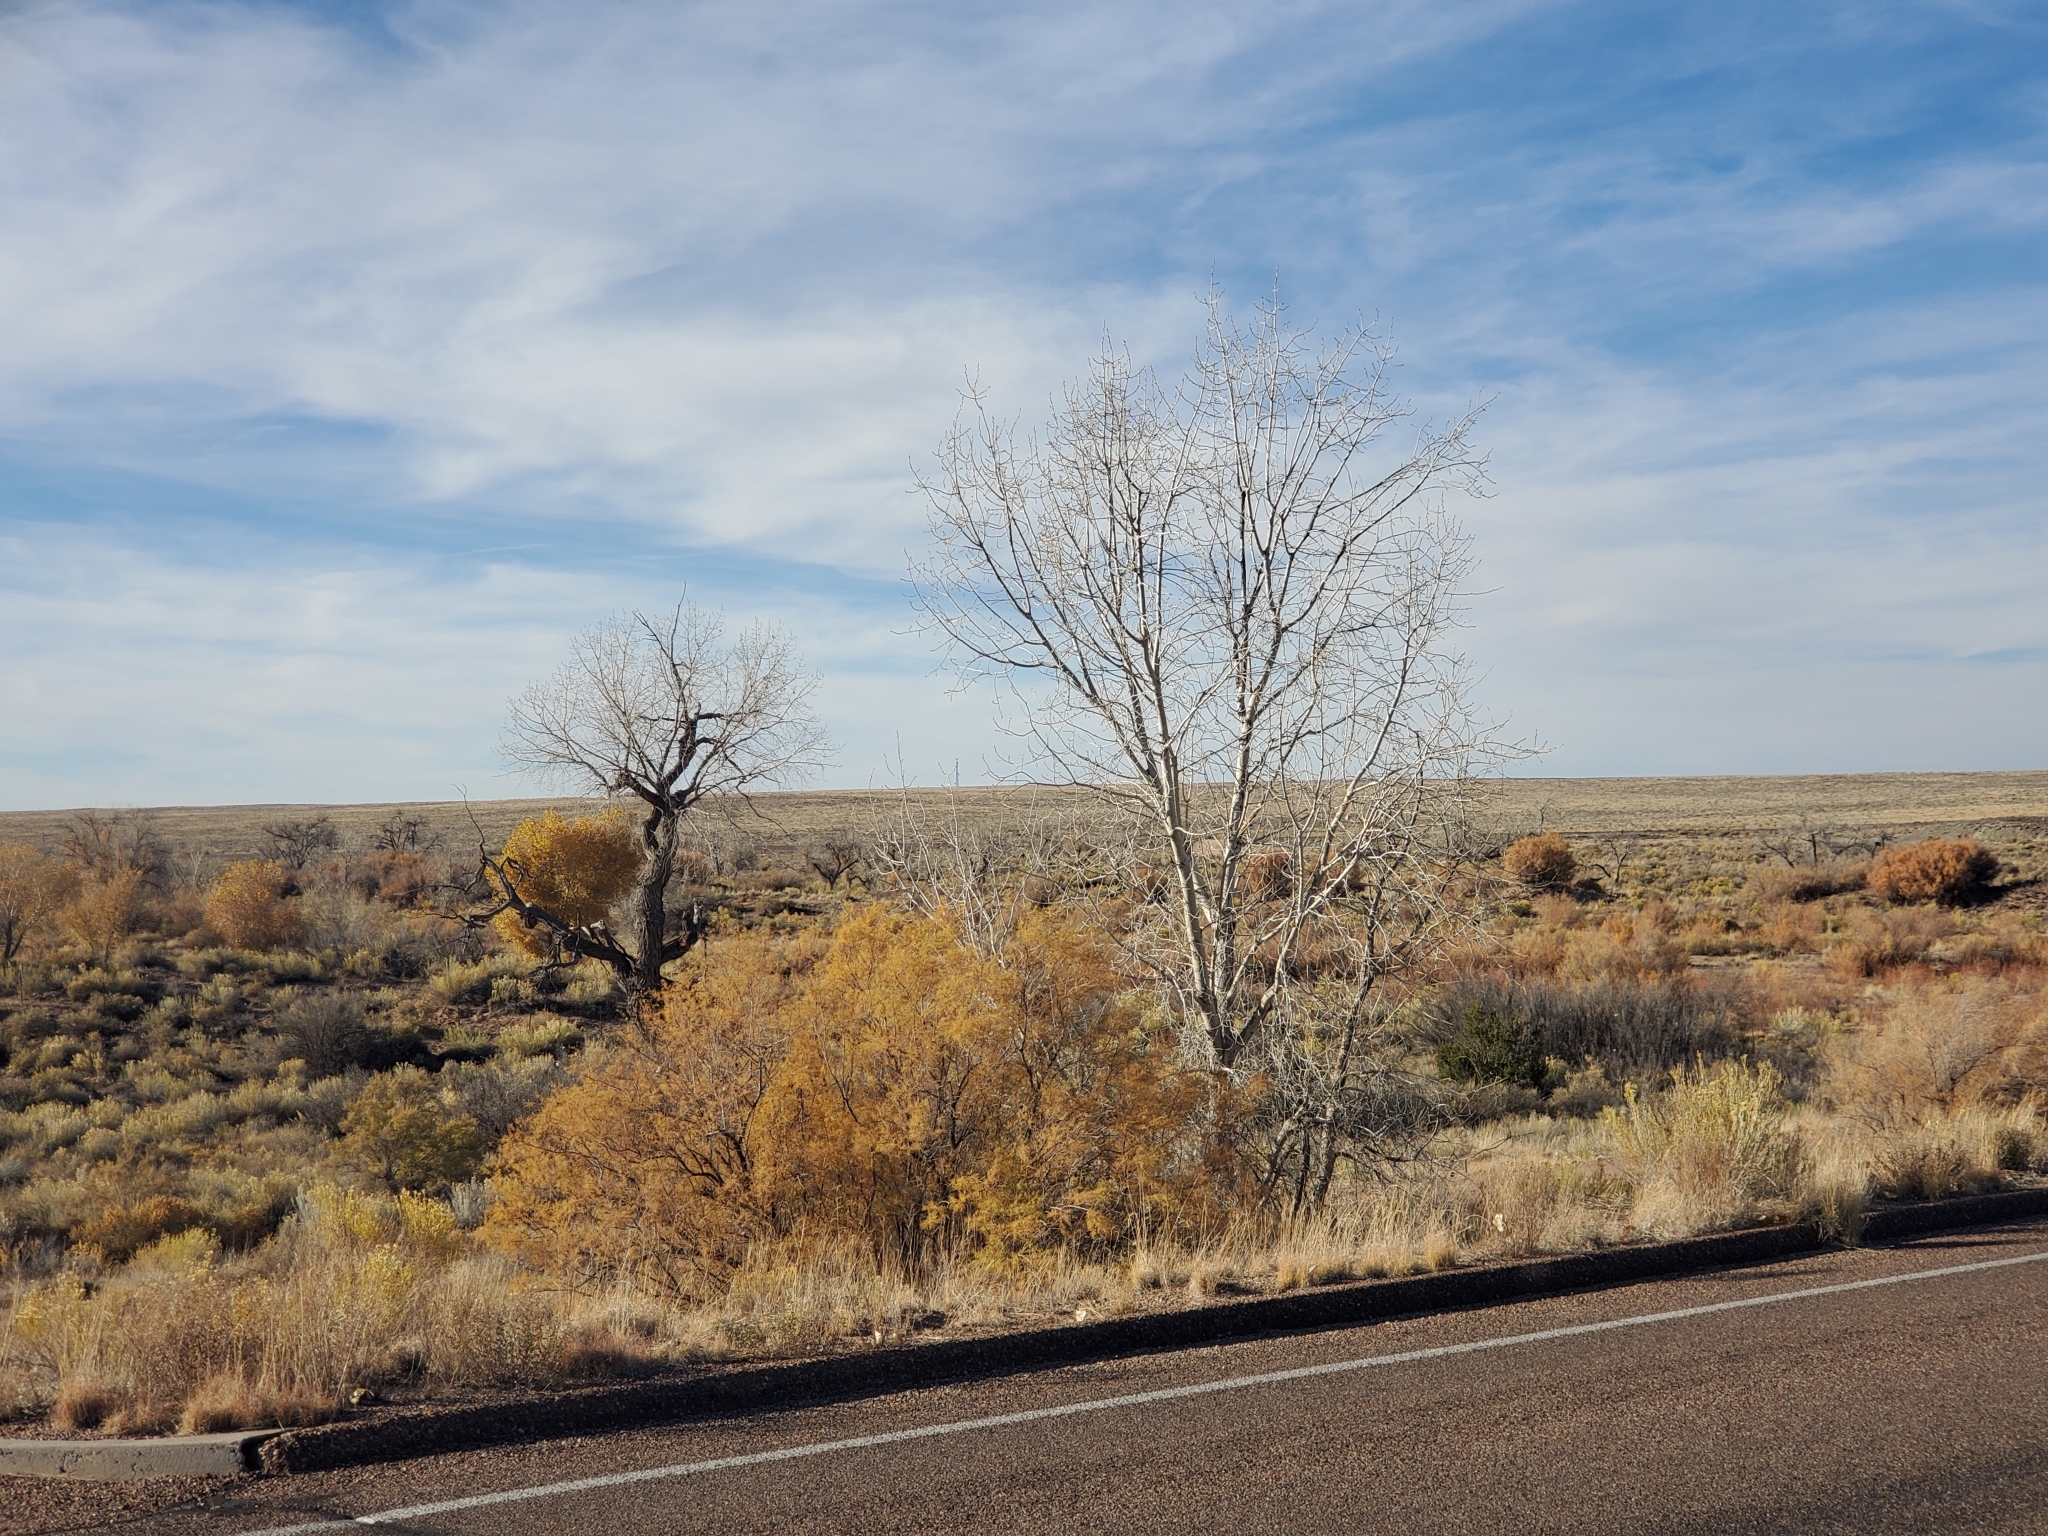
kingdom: Plantae
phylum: Tracheophyta
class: Magnoliopsida
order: Malpighiales
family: Salicaceae
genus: Populus
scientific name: Populus fremontii
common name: Fremont's cottonwood
